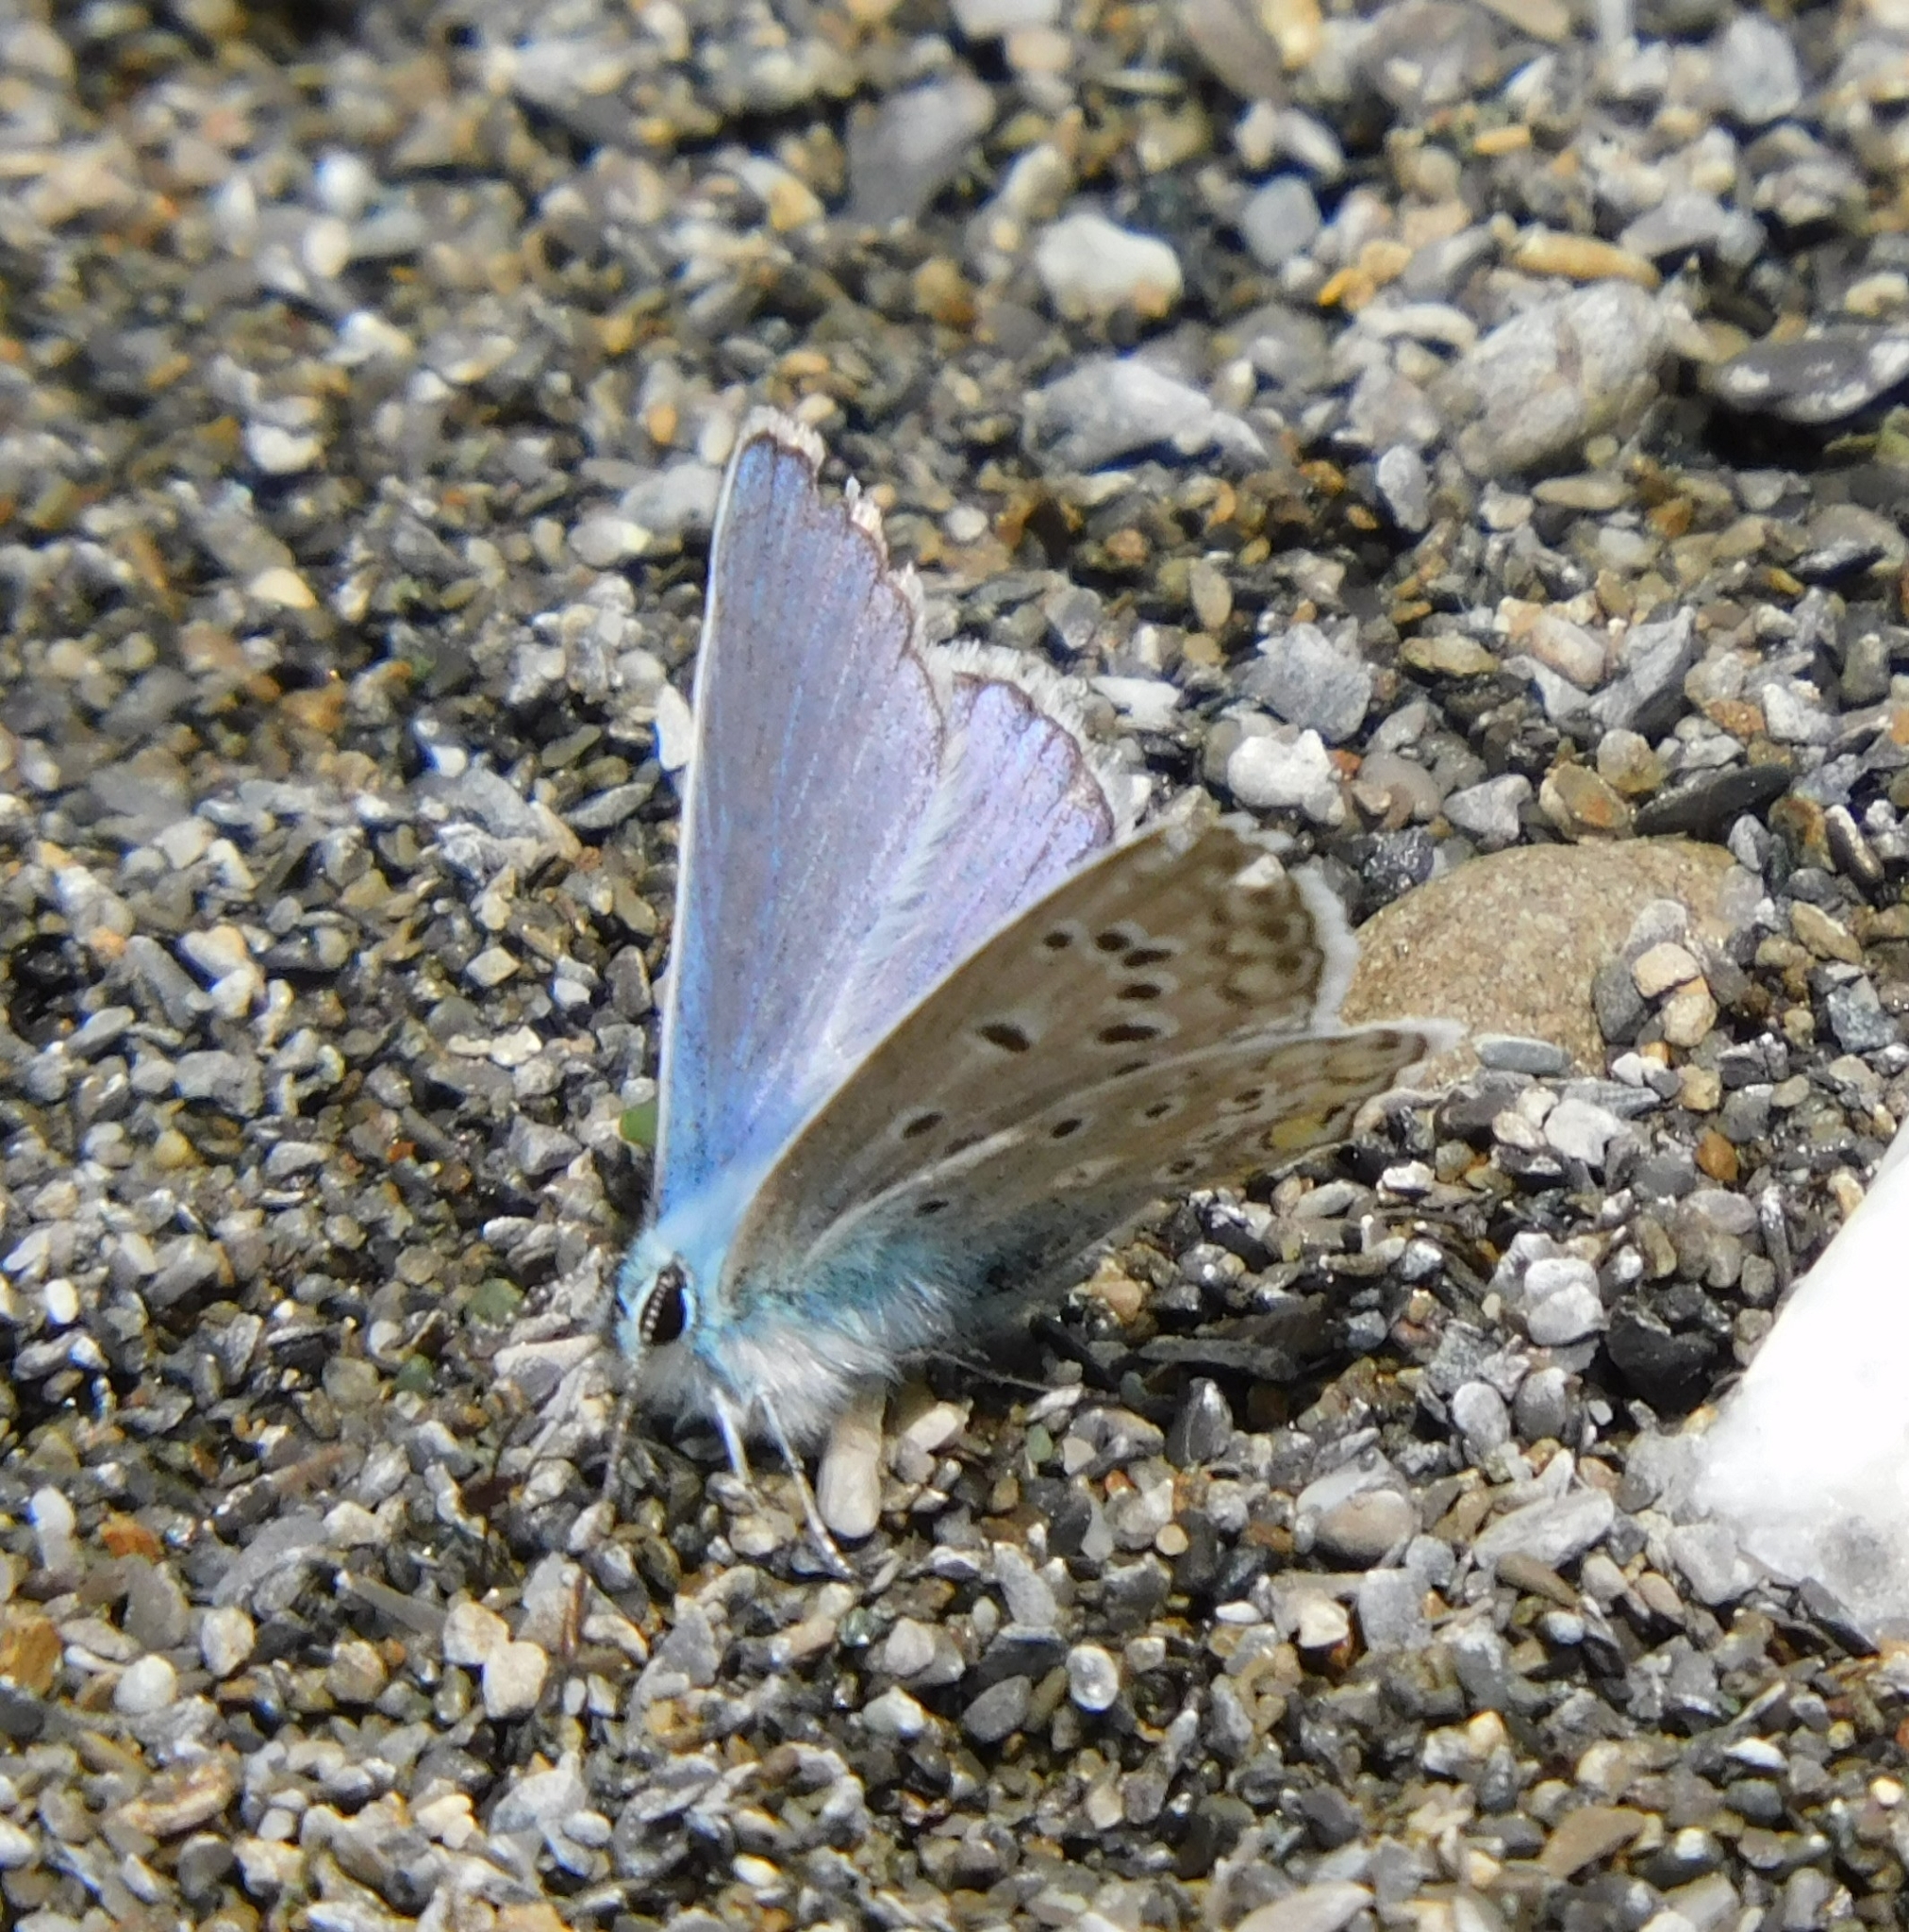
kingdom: Animalia
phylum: Arthropoda
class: Insecta
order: Lepidoptera
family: Lycaenidae
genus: Polyommatus
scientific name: Polyommatus icarus
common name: Common blue
